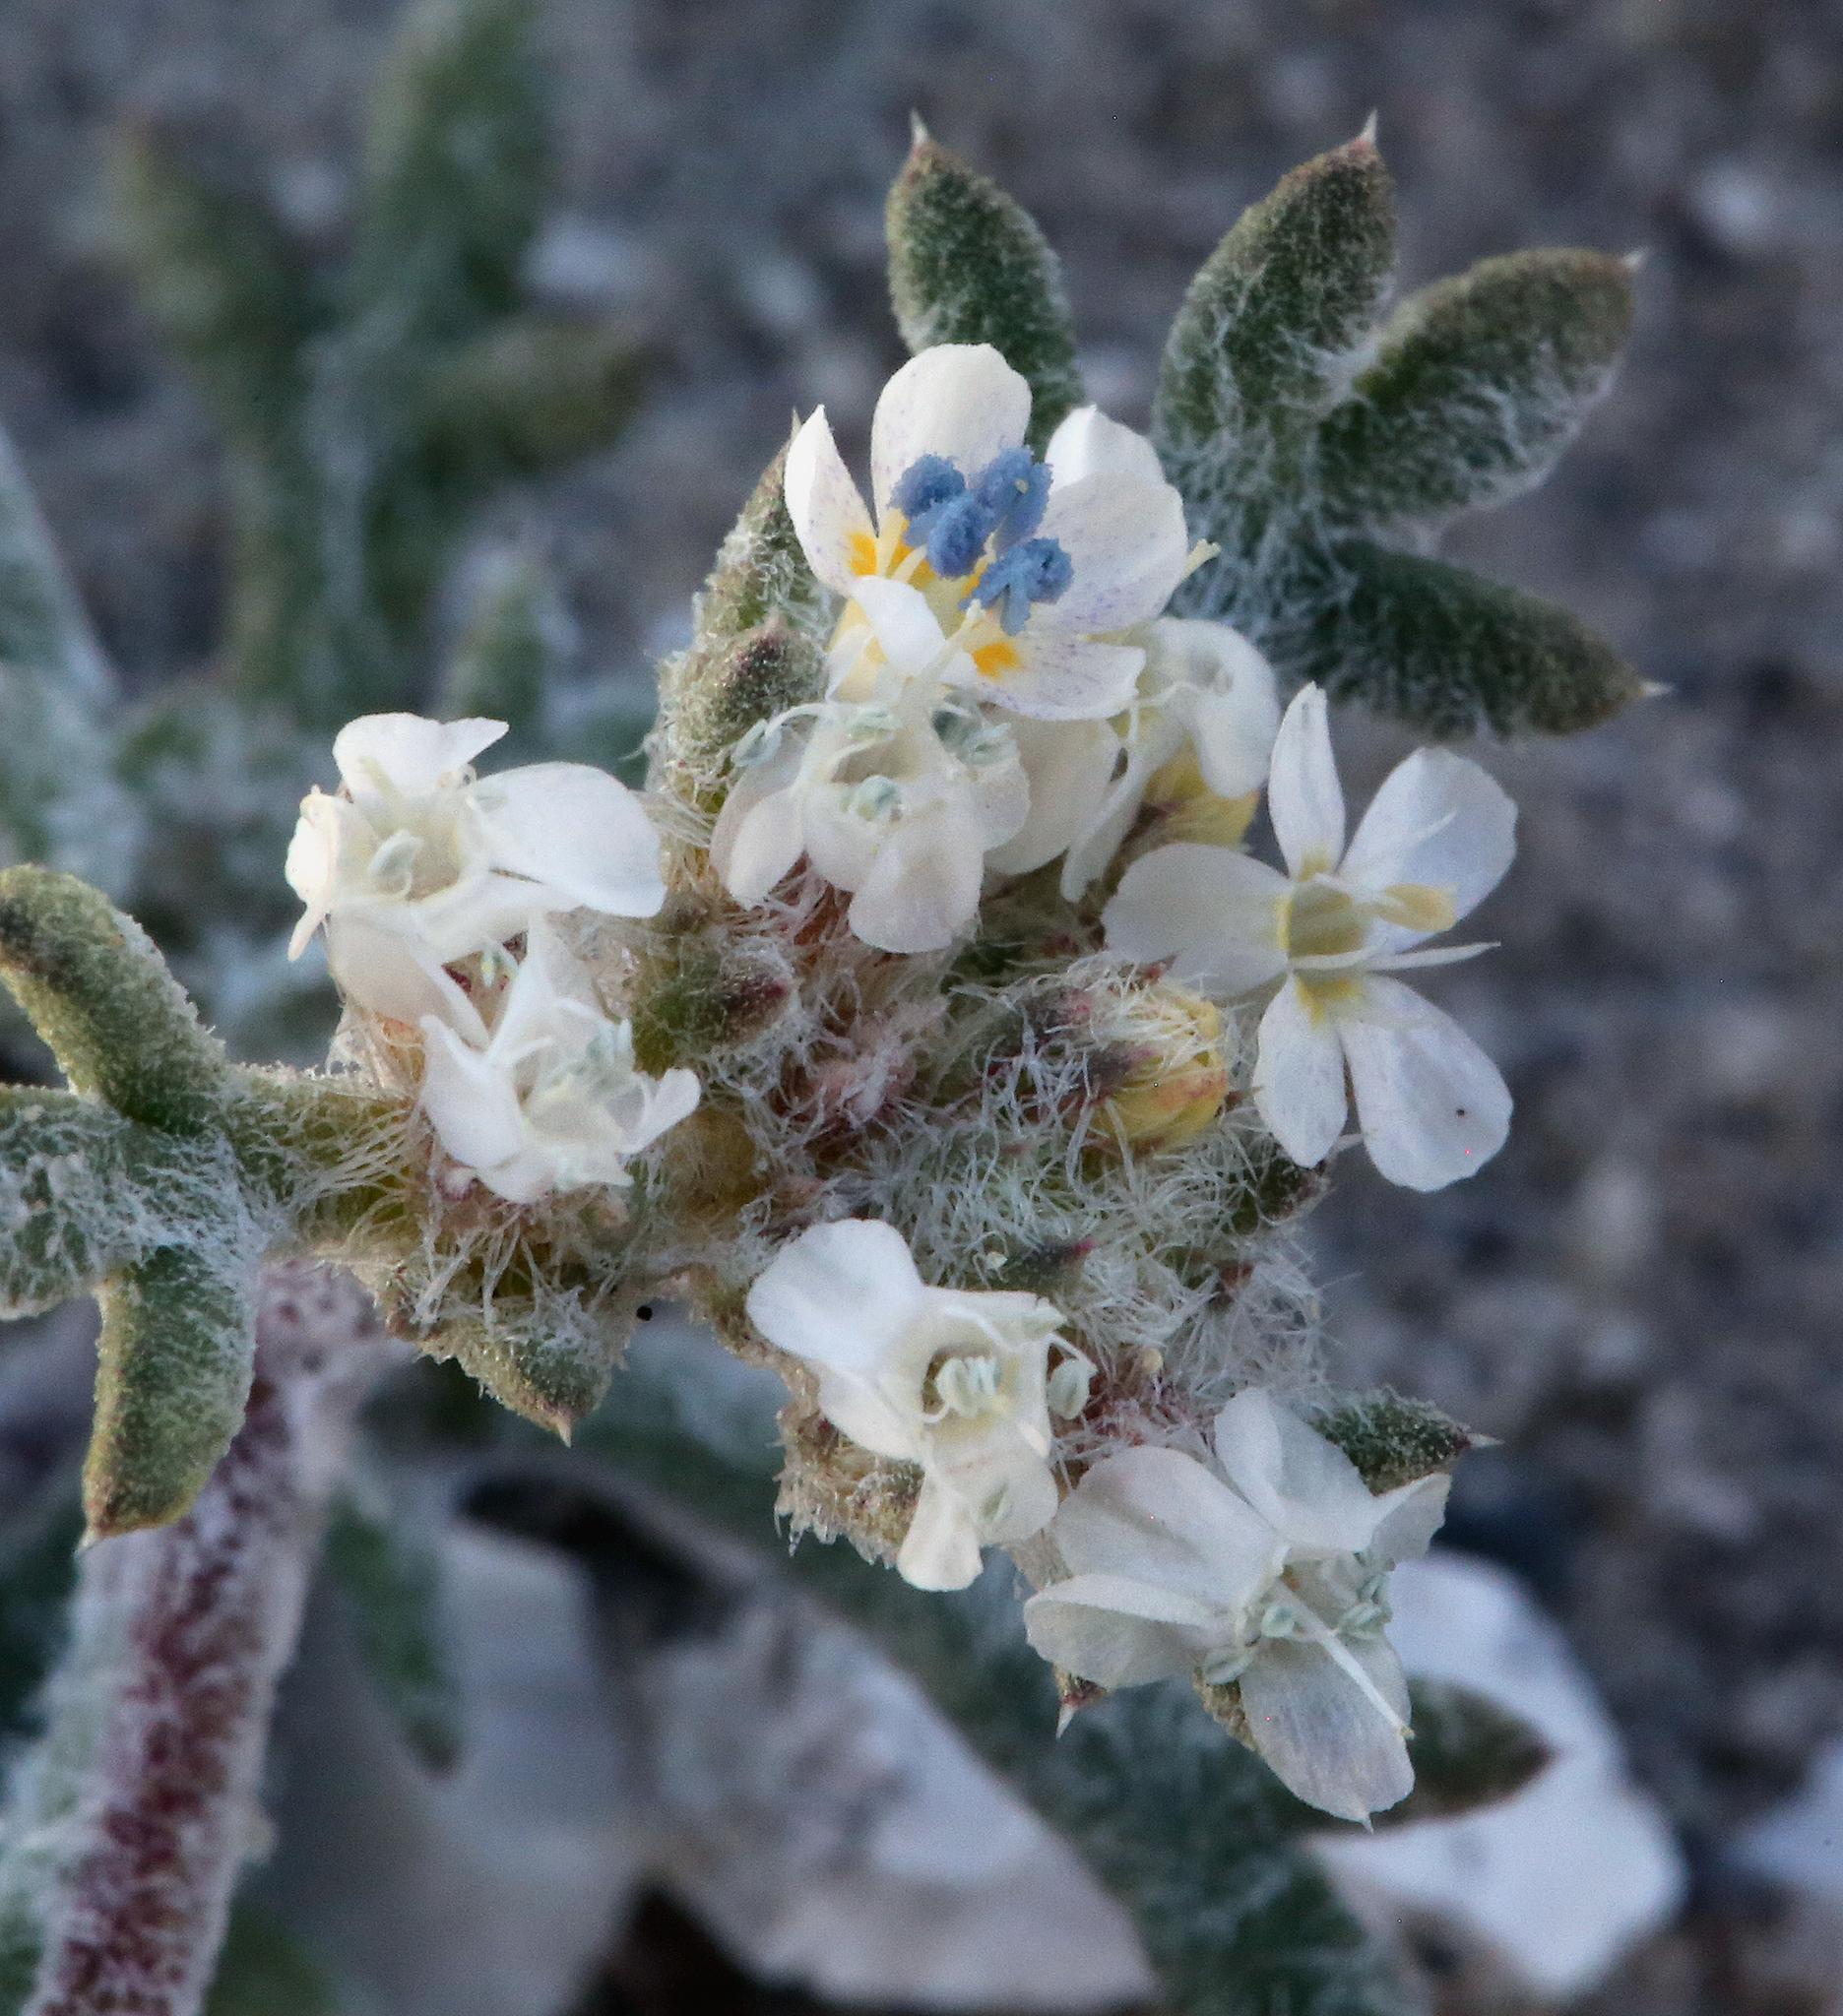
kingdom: Plantae
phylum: Tracheophyta
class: Magnoliopsida
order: Ericales
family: Polemoniaceae
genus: Ipomopsis
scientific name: Ipomopsis congesta
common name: Ball-head gilia
